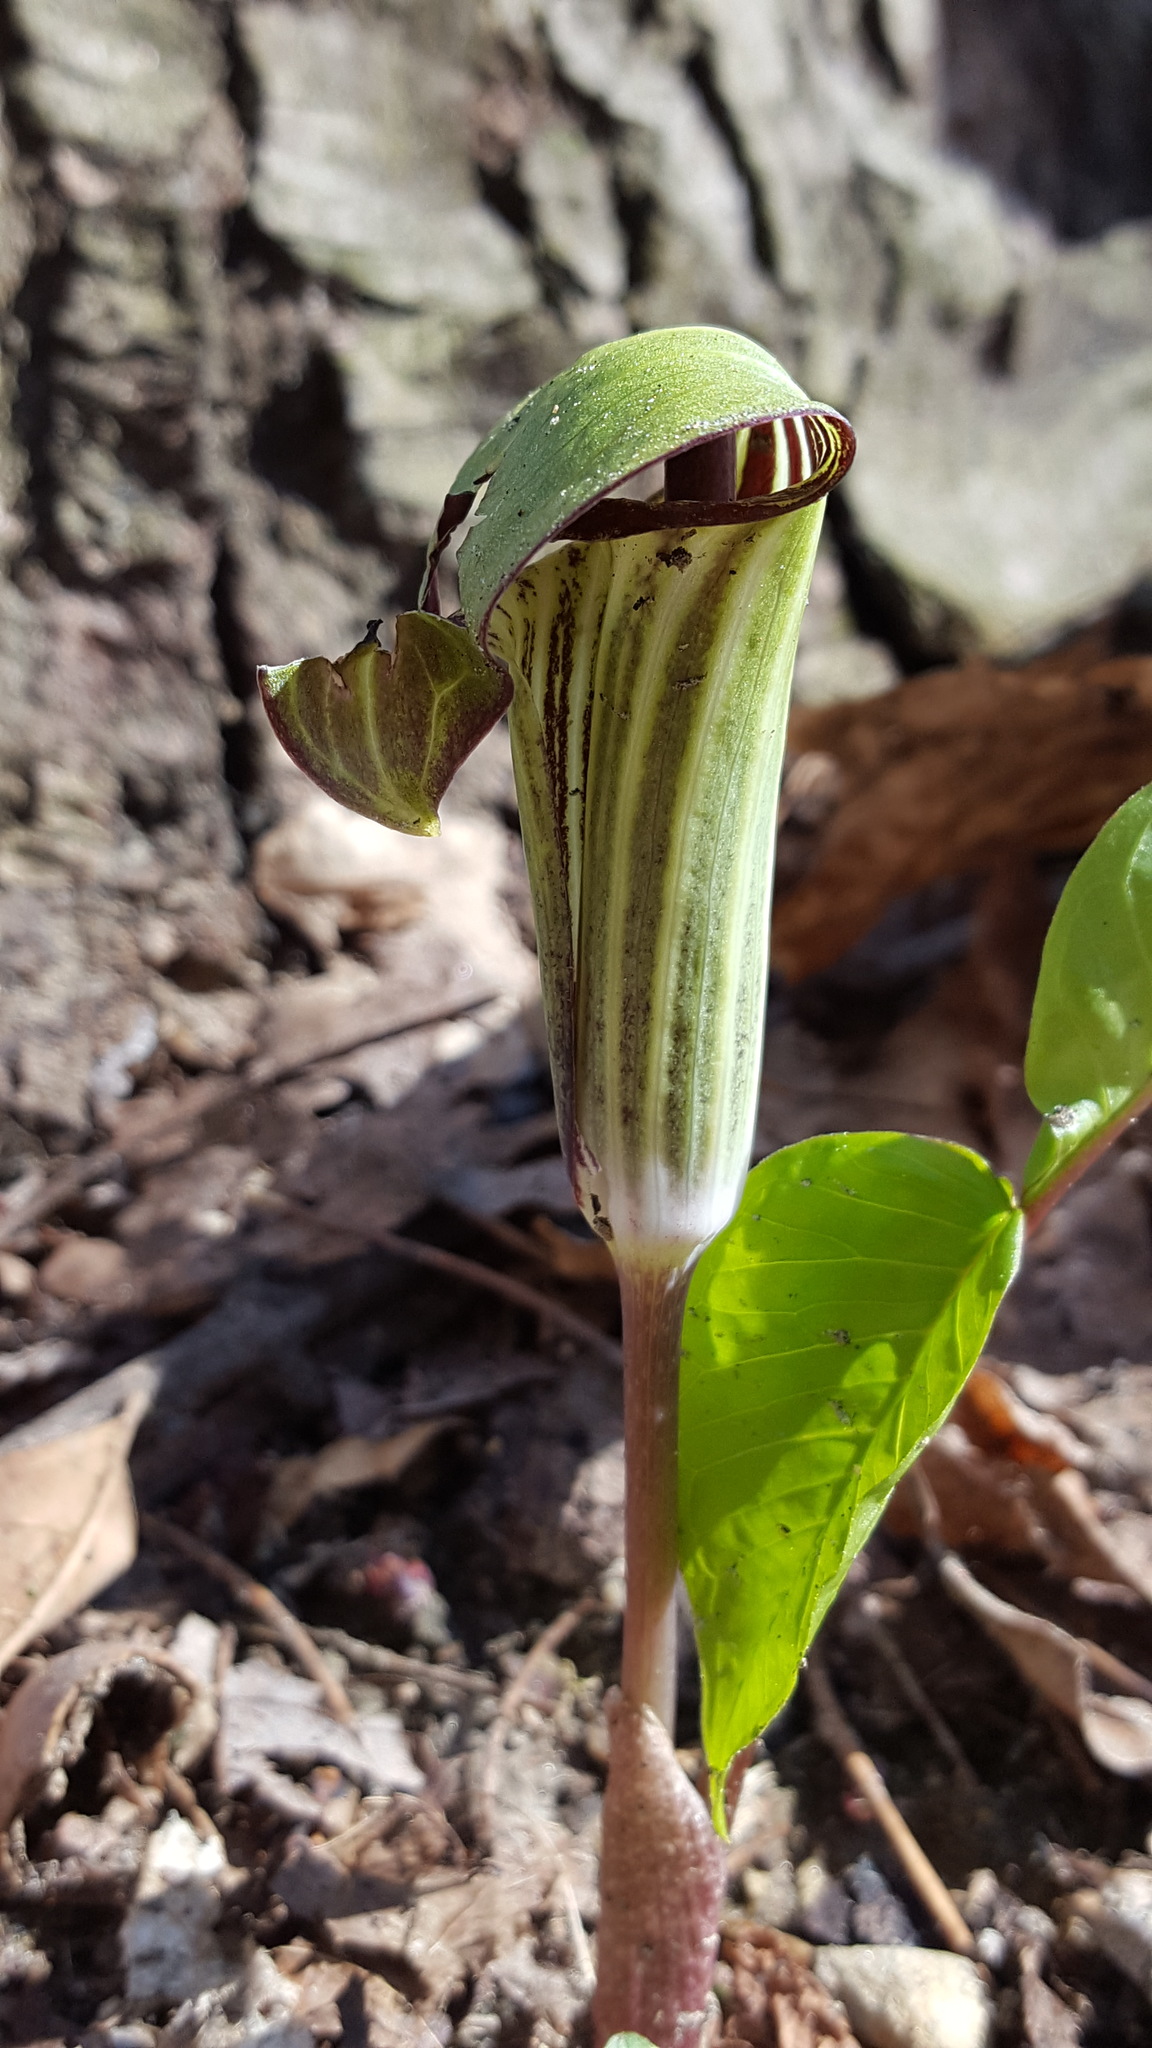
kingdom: Plantae
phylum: Tracheophyta
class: Liliopsida
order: Alismatales
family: Araceae
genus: Arisaema
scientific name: Arisaema triphyllum
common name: Jack-in-the-pulpit
